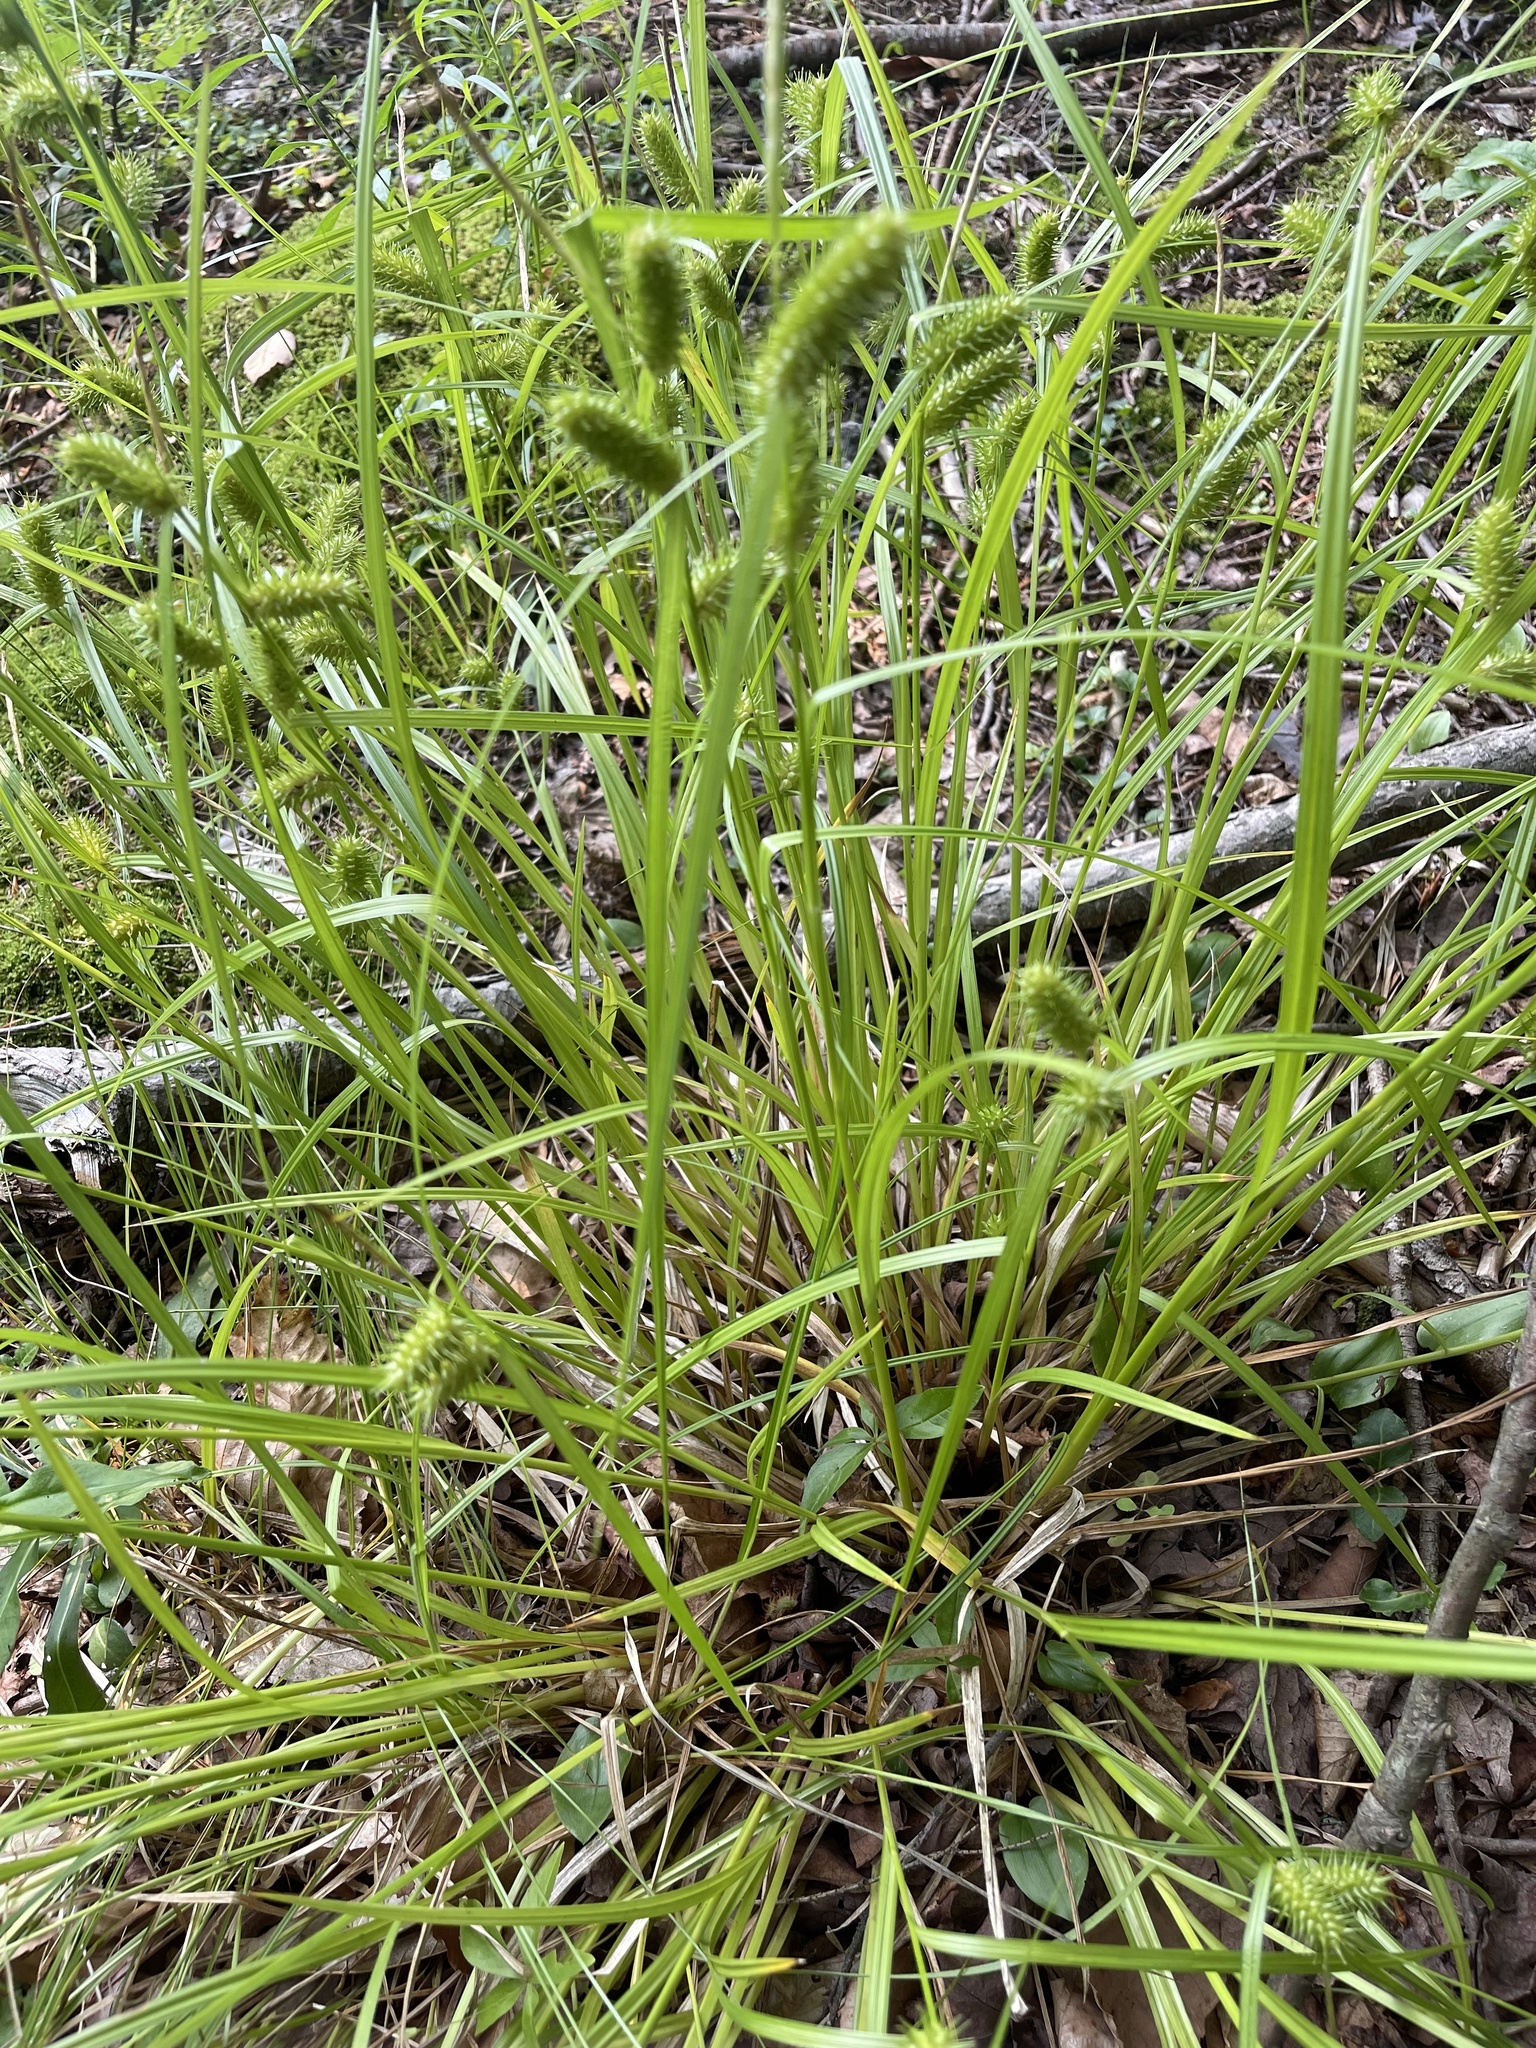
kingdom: Plantae
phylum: Tracheophyta
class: Liliopsida
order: Poales
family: Cyperaceae
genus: Carex
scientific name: Carex lurida
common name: Sallow sedge
